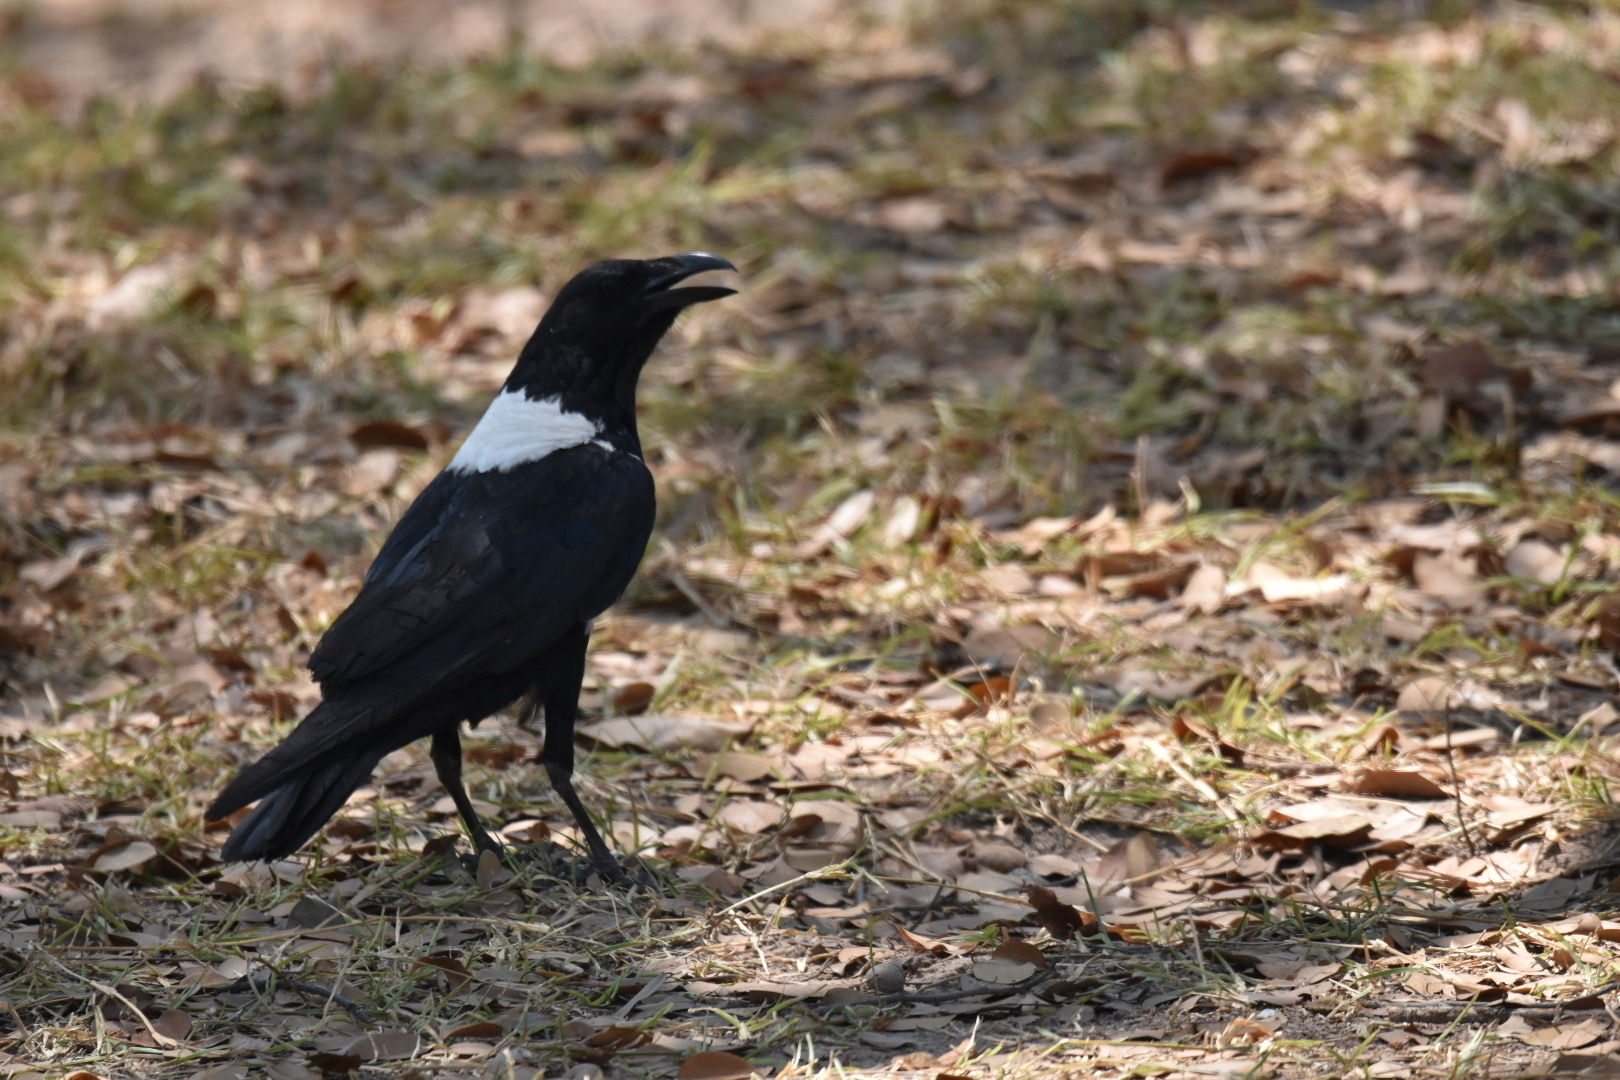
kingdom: Animalia
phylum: Chordata
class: Aves
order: Passeriformes
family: Corvidae
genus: Corvus
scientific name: Corvus albus
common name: Pied crow
